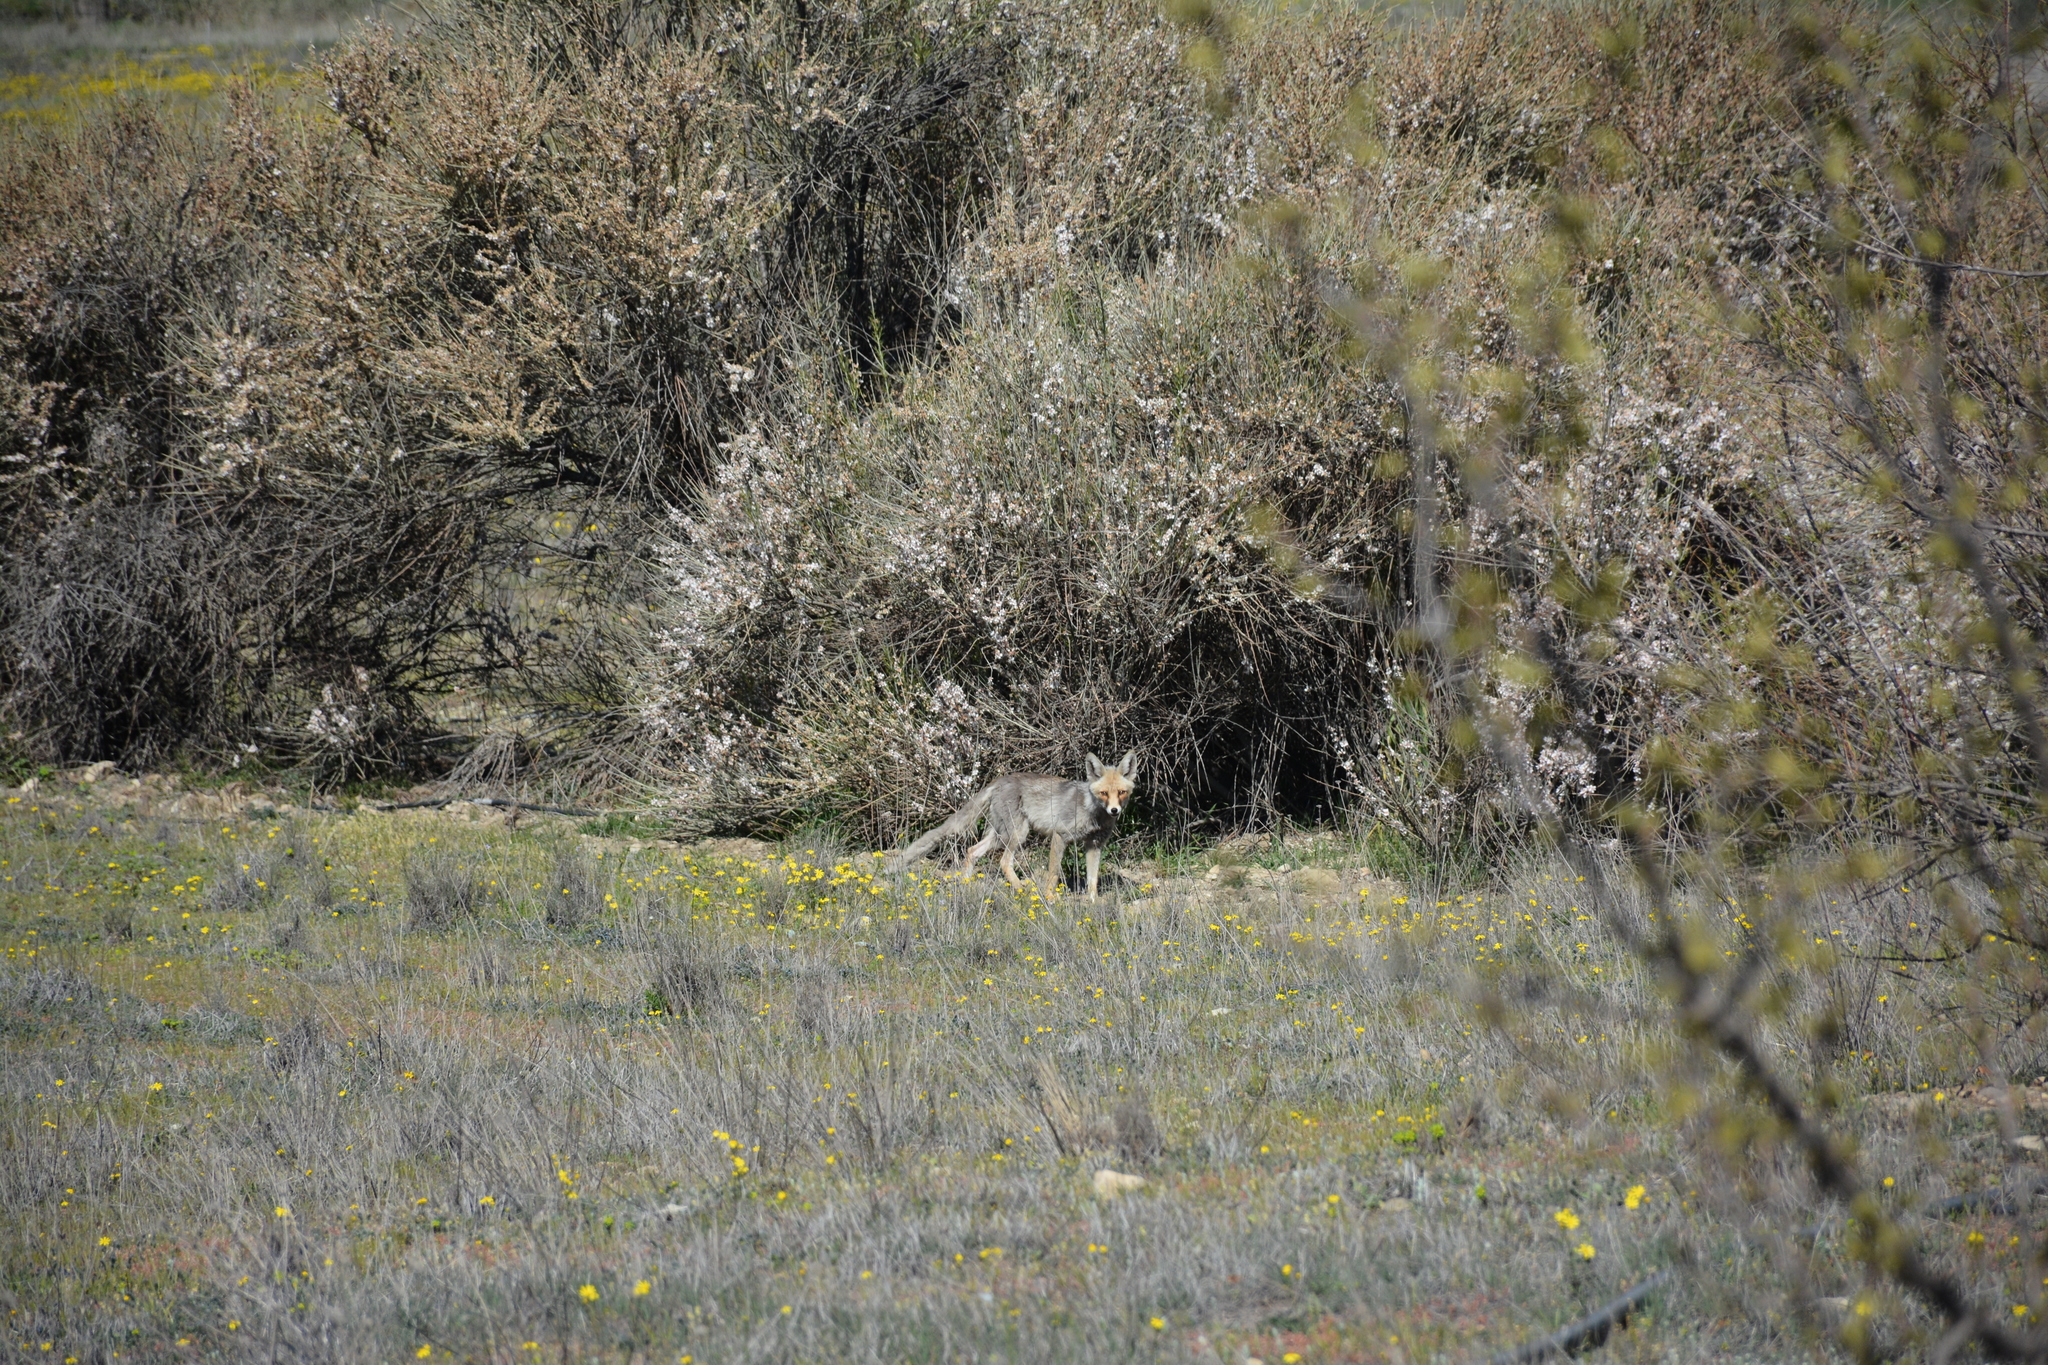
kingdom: Animalia
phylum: Chordata
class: Mammalia
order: Carnivora
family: Canidae
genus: Vulpes
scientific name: Vulpes vulpes
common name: Red fox
